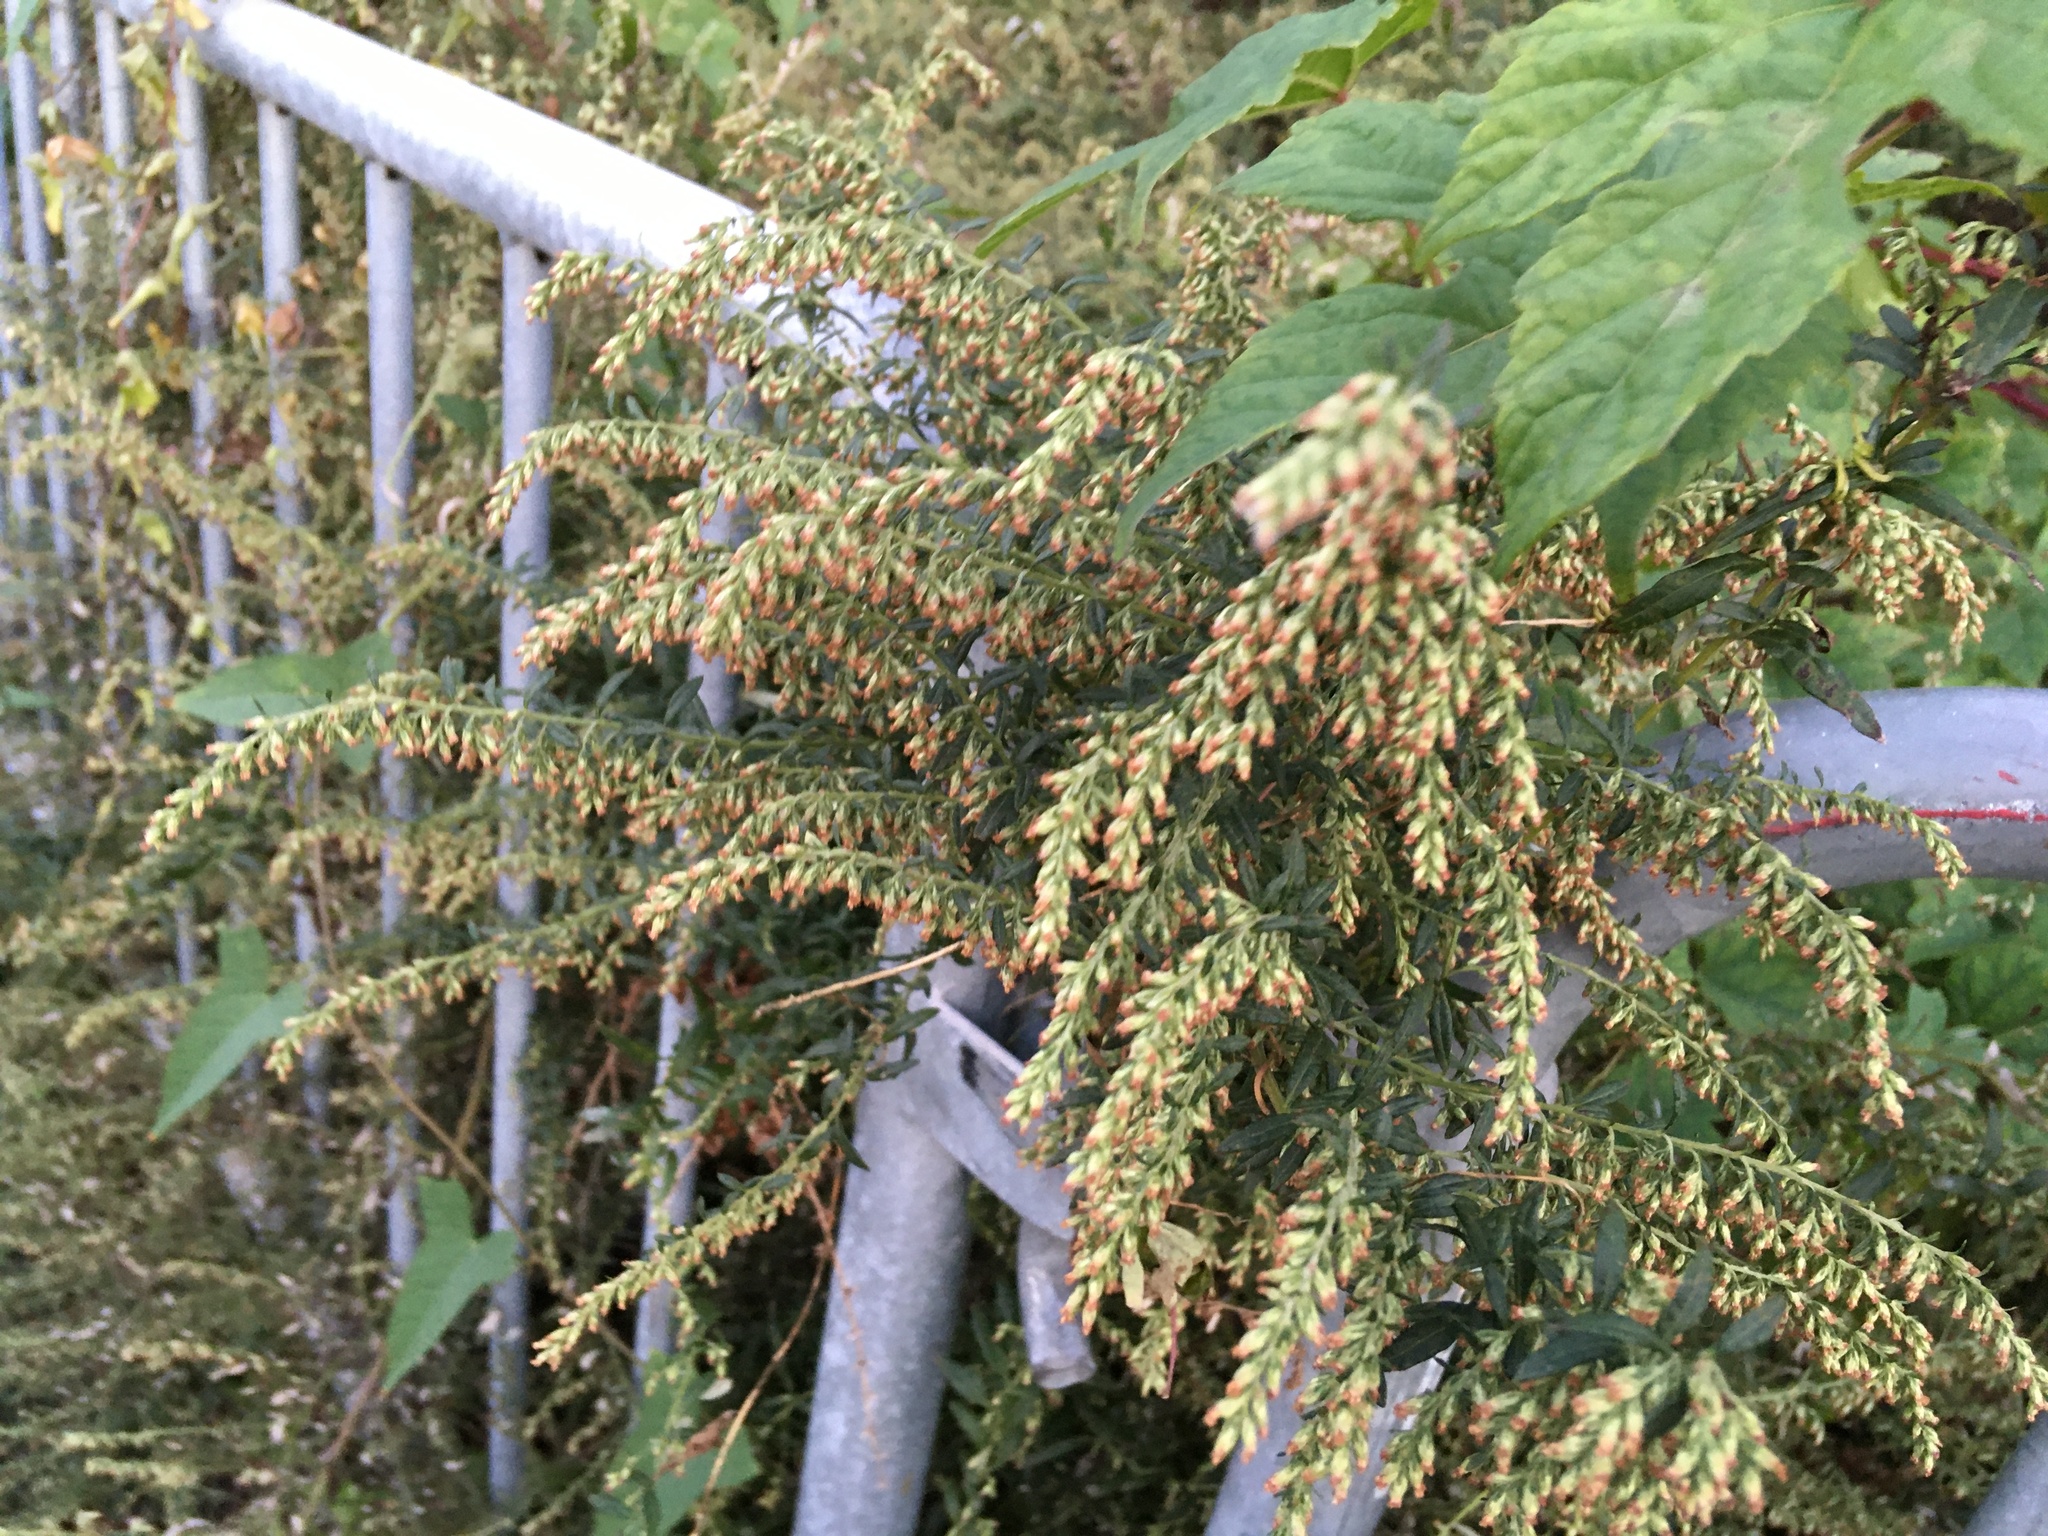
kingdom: Plantae
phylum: Tracheophyta
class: Magnoliopsida
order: Asterales
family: Asteraceae
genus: Artemisia
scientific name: Artemisia vulgaris
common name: Mugwort
